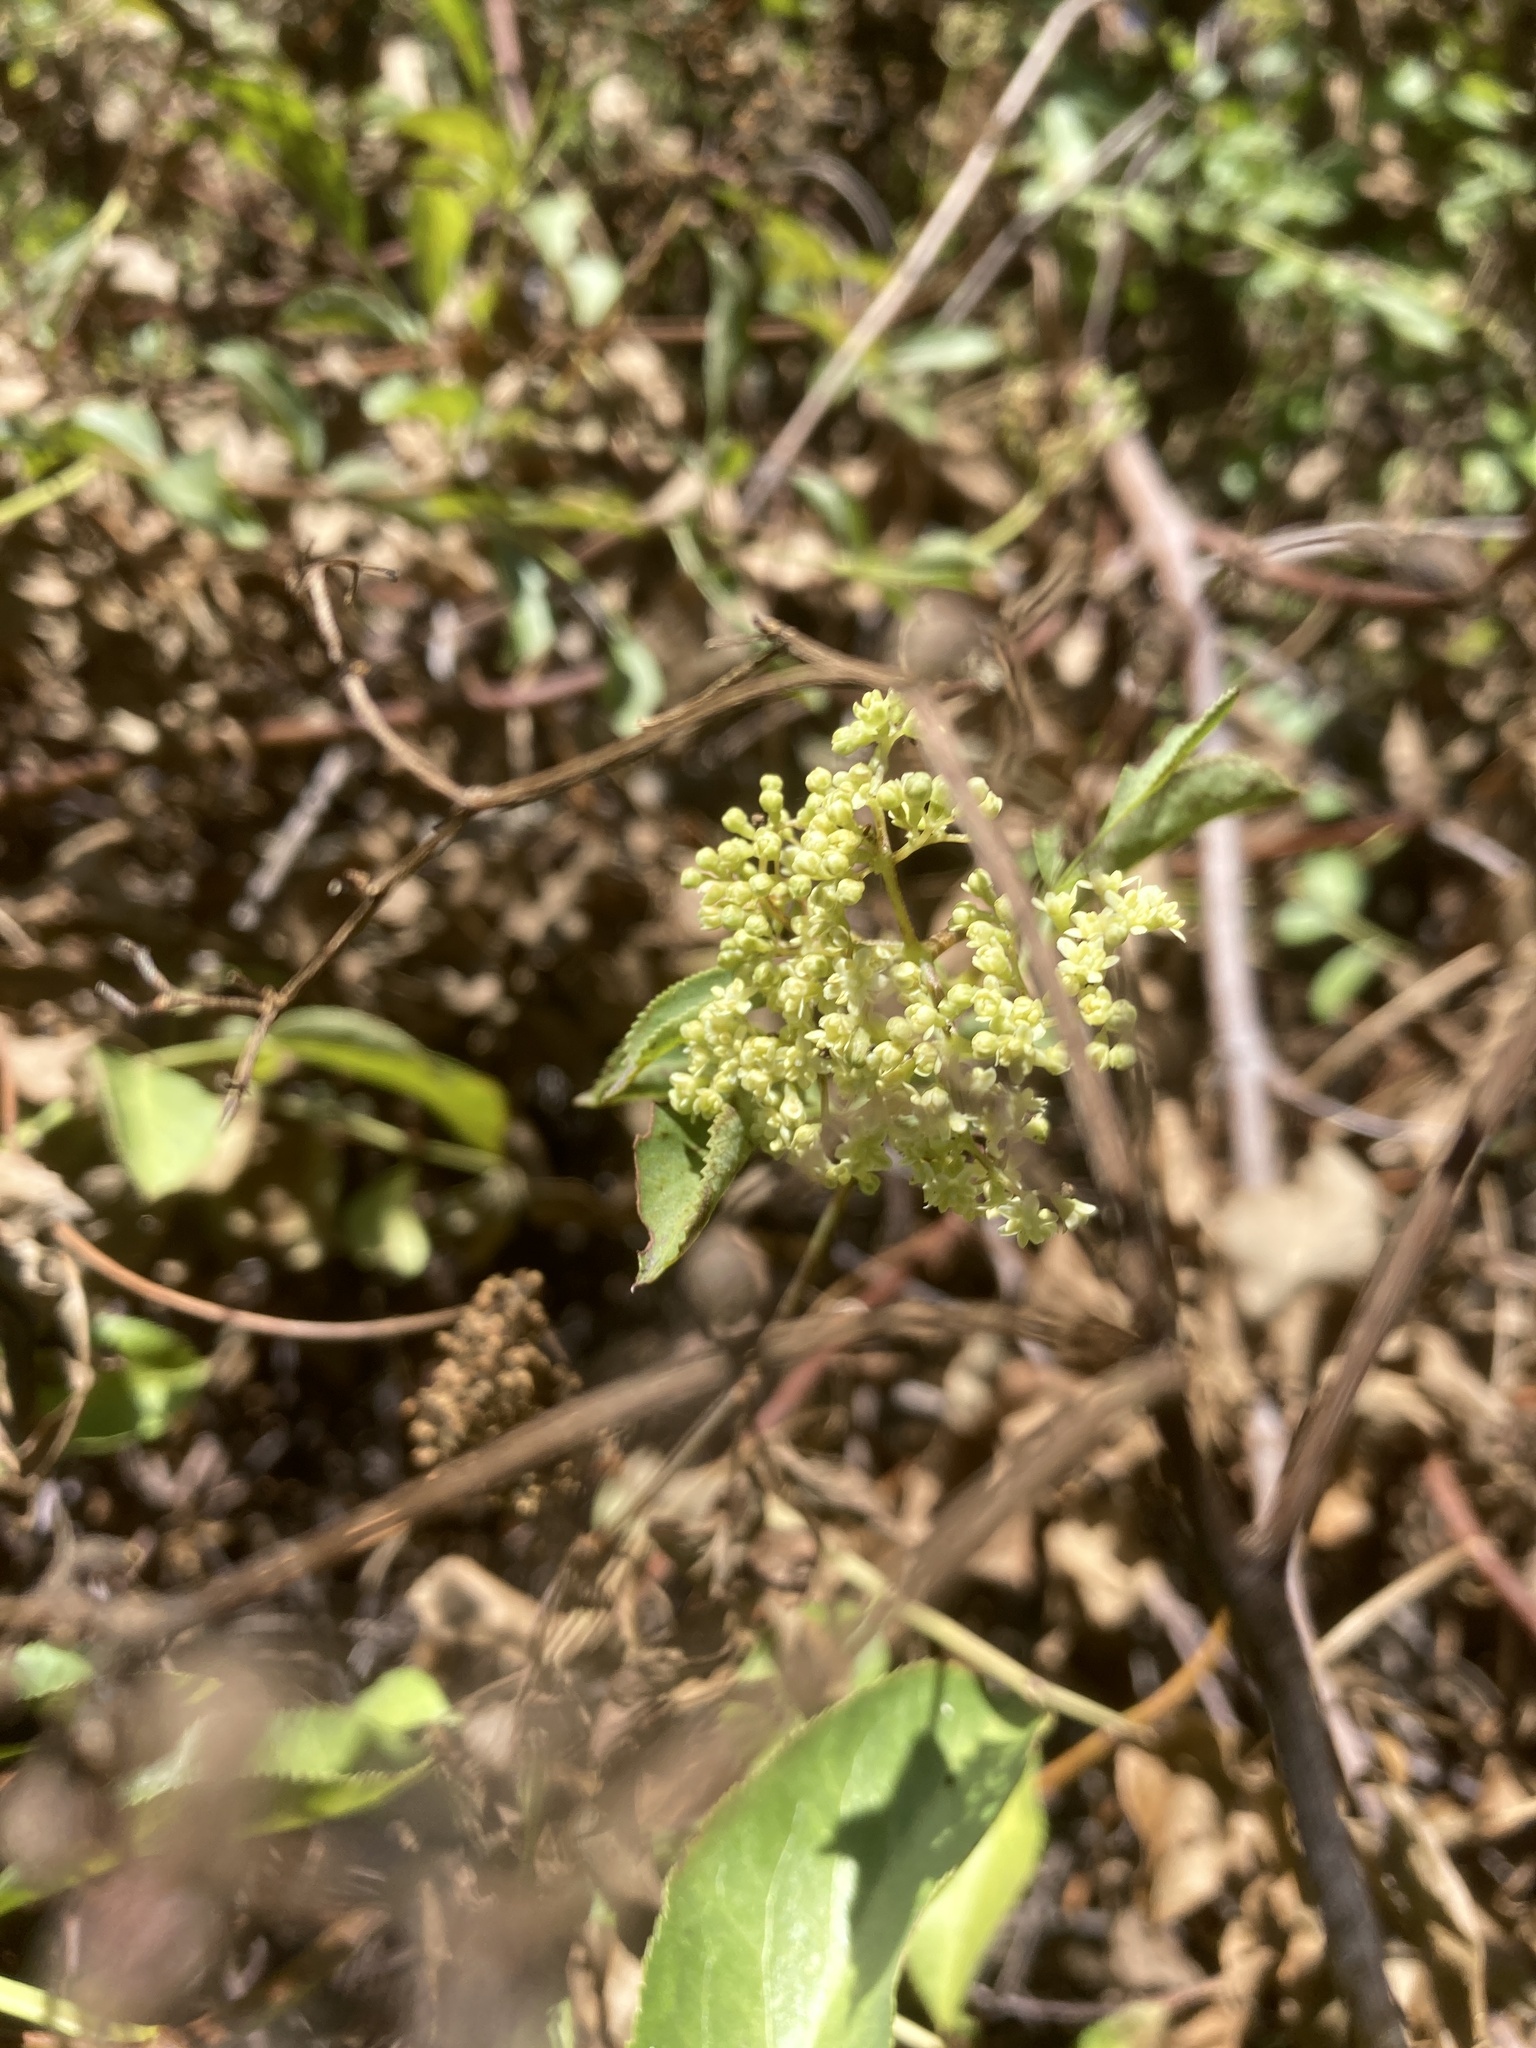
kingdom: Plantae
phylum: Tracheophyta
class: Magnoliopsida
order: Dipsacales
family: Viburnaceae
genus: Sambucus
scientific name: Sambucus cerulea
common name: Blue elder
